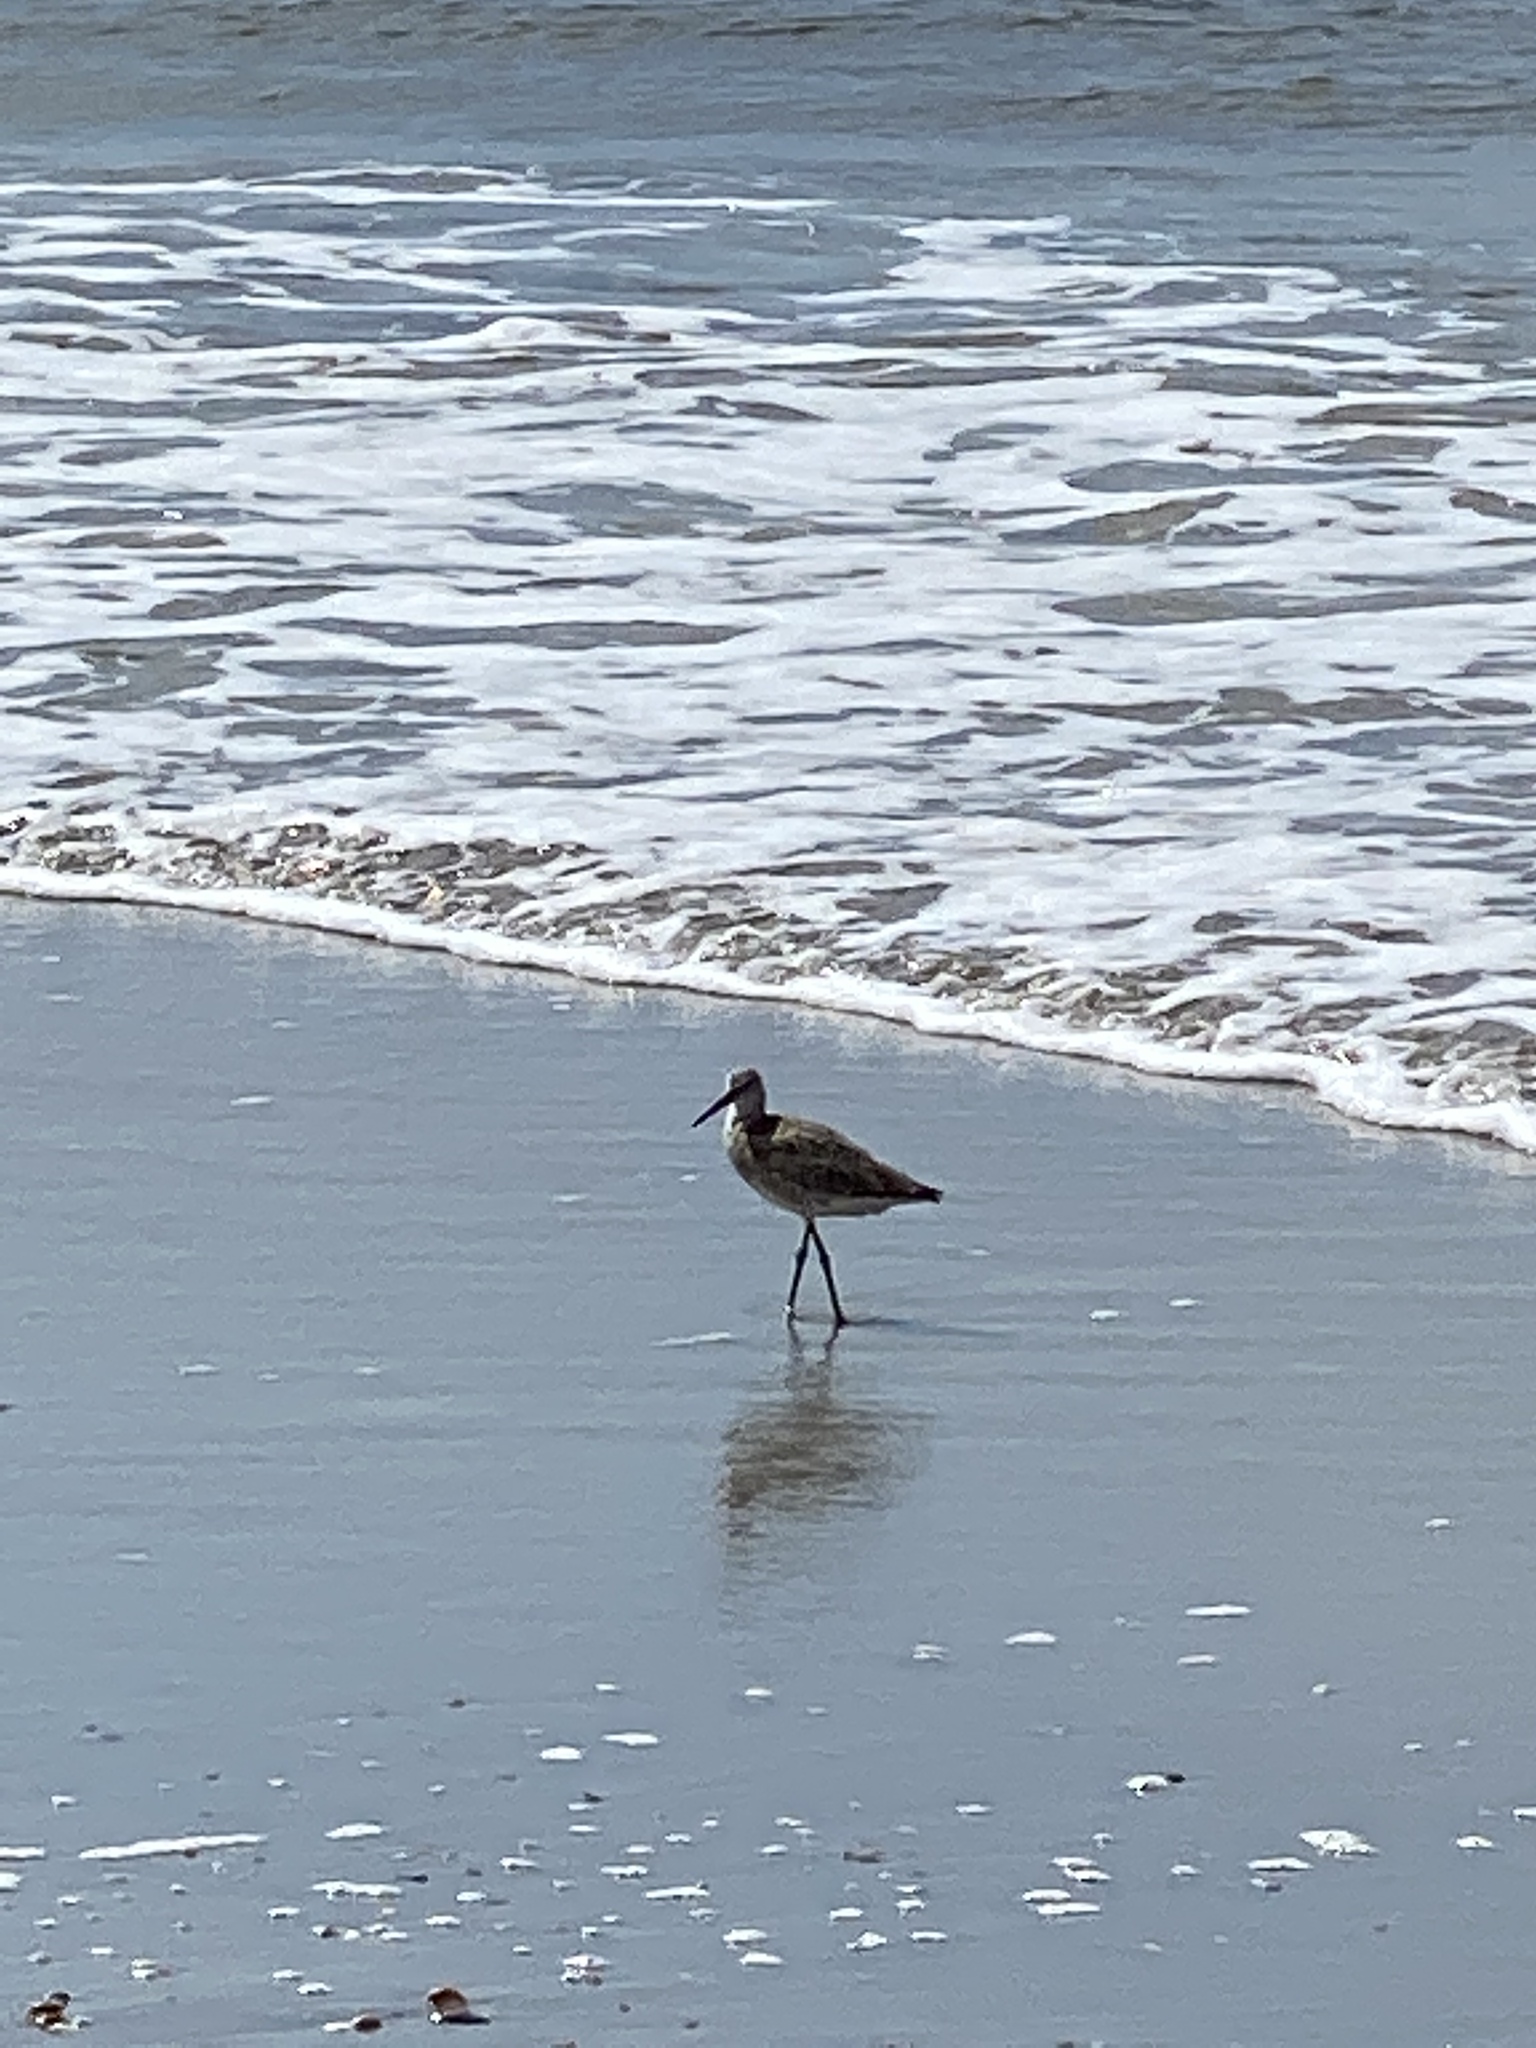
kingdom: Animalia
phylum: Chordata
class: Aves
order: Charadriiformes
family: Scolopacidae
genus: Tringa
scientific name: Tringa semipalmata
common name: Willet
